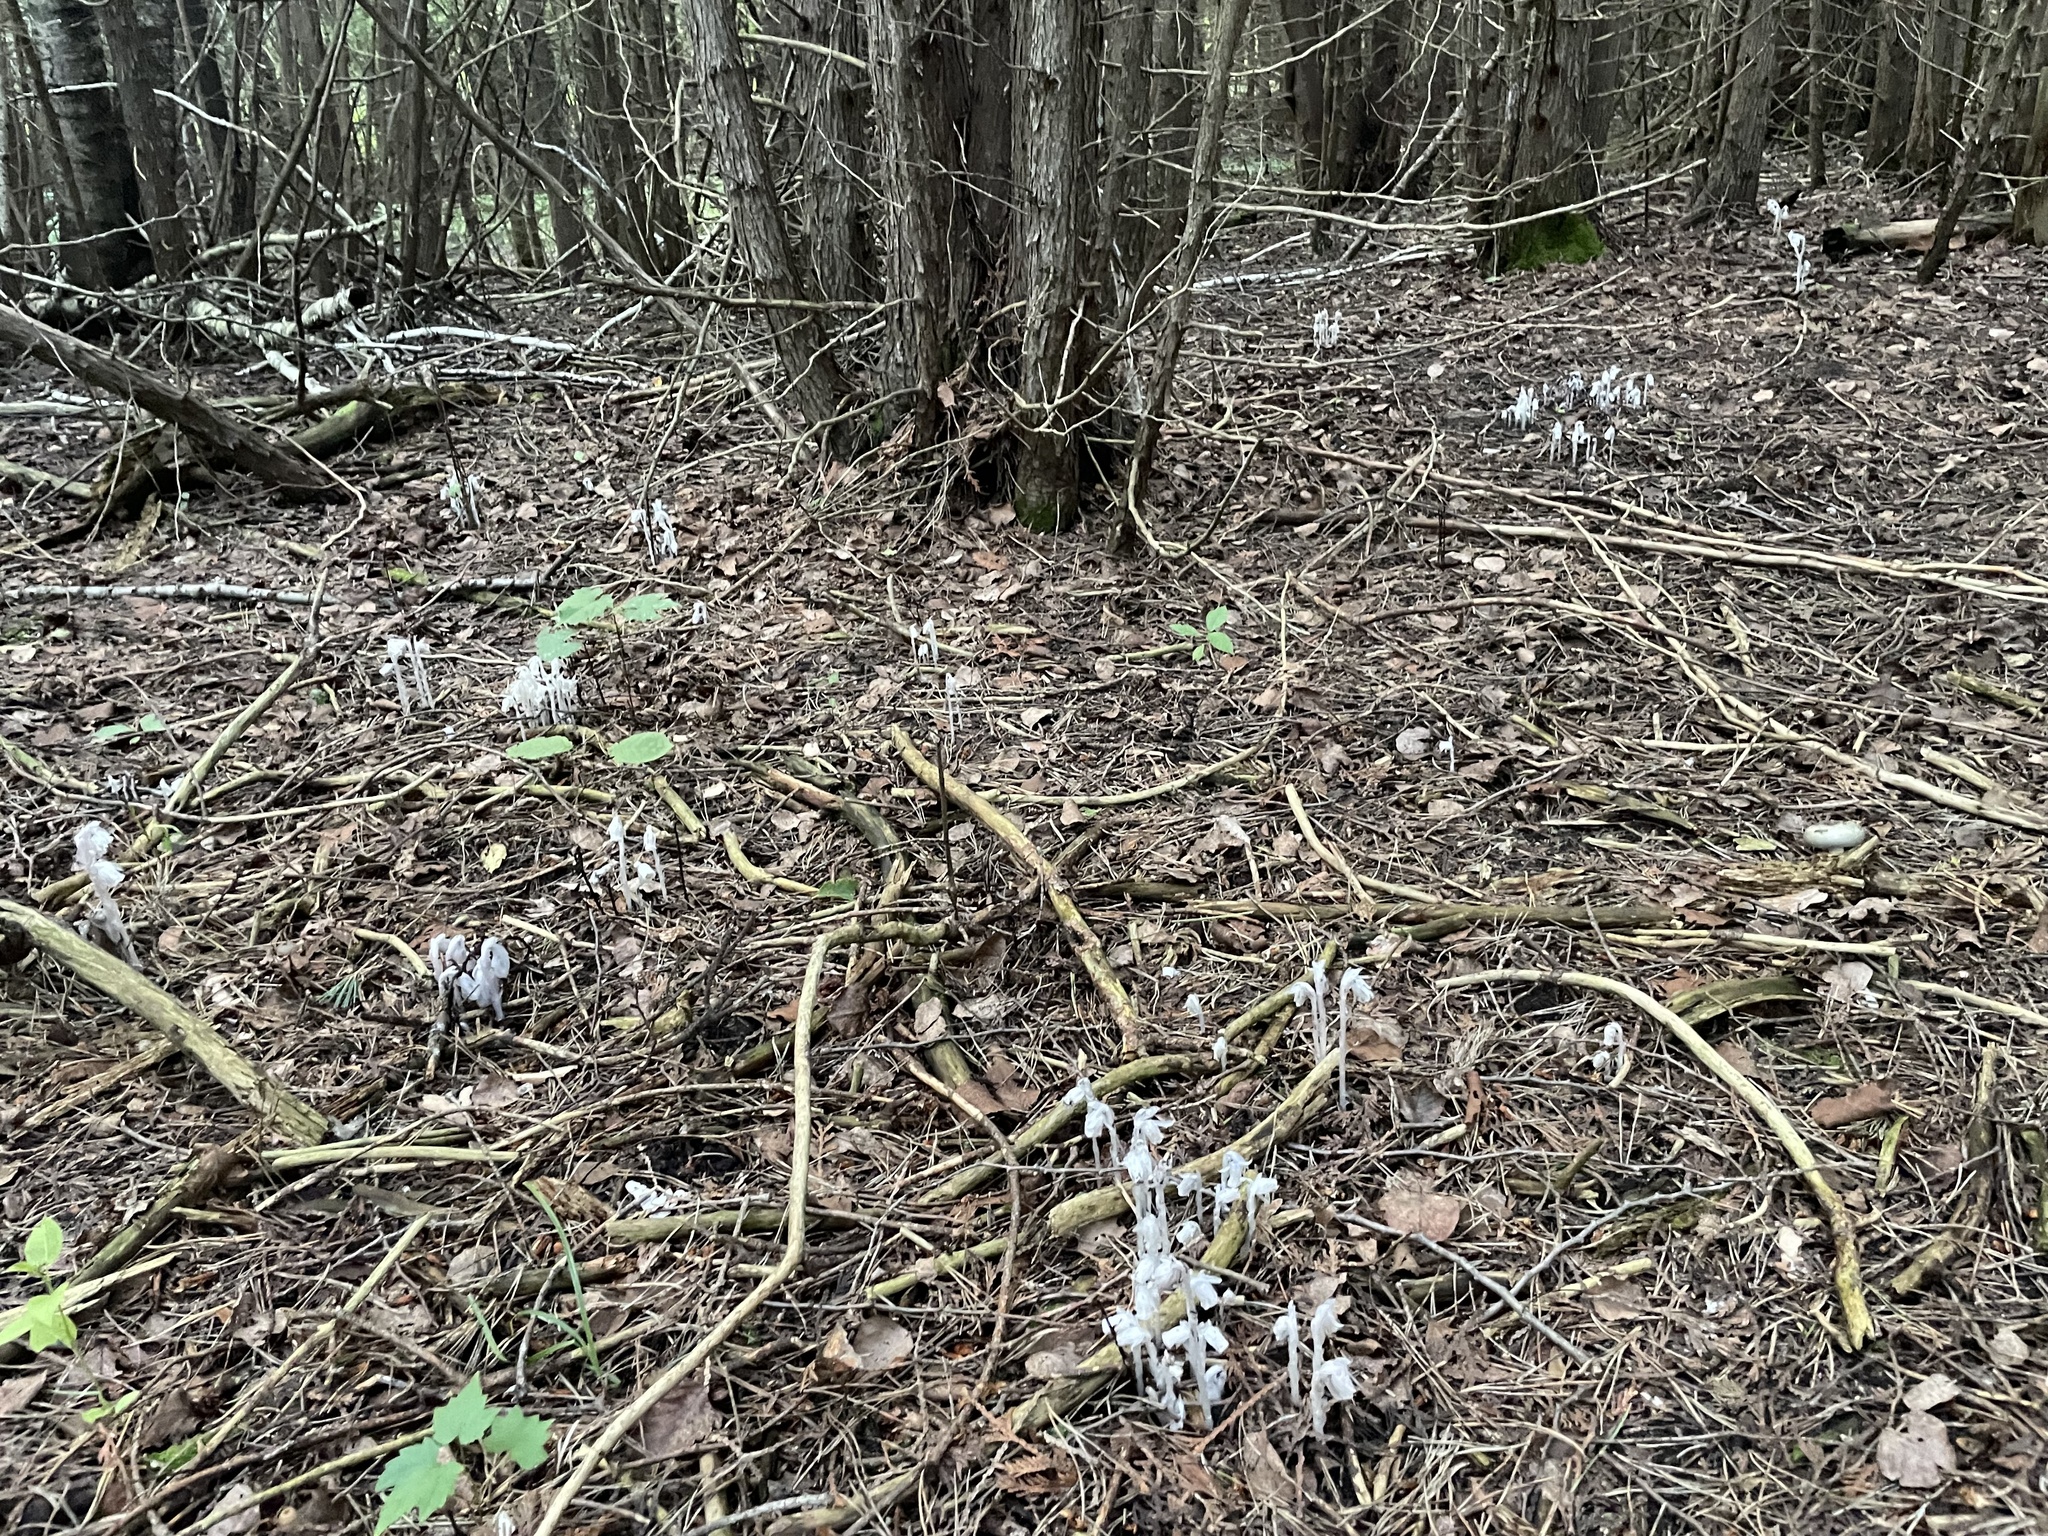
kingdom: Plantae
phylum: Tracheophyta
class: Magnoliopsida
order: Ericales
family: Ericaceae
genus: Monotropa
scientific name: Monotropa uniflora
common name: Convulsion root
